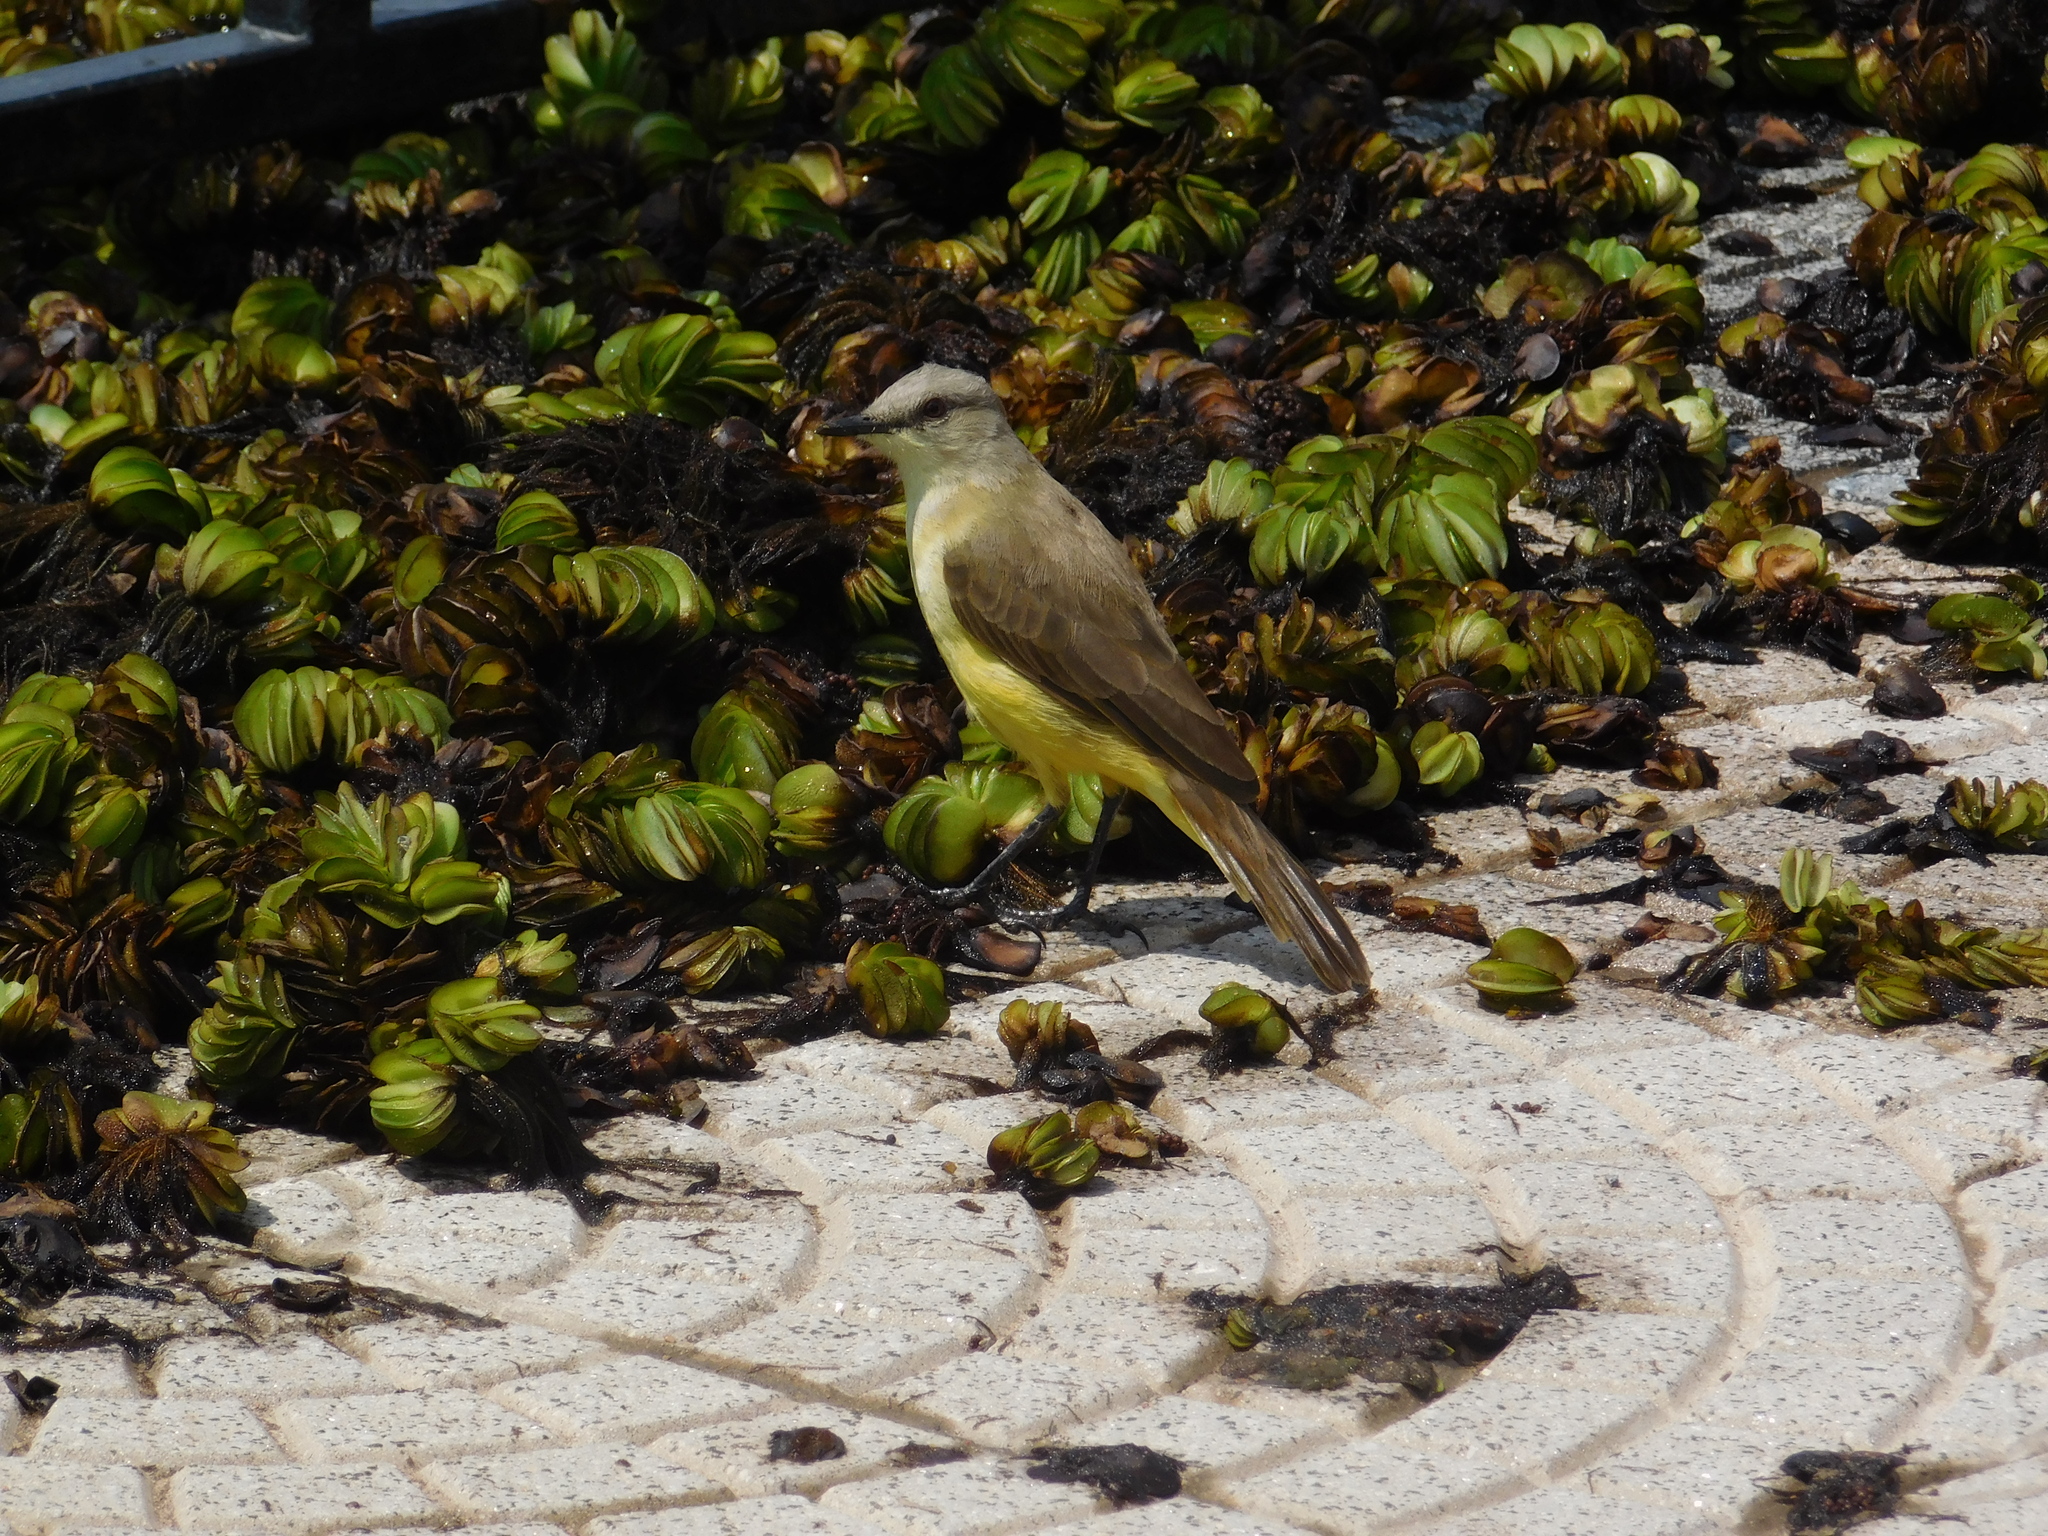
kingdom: Animalia
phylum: Chordata
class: Aves
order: Passeriformes
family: Tyrannidae
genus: Machetornis
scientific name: Machetornis rixosa
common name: Cattle tyrant
